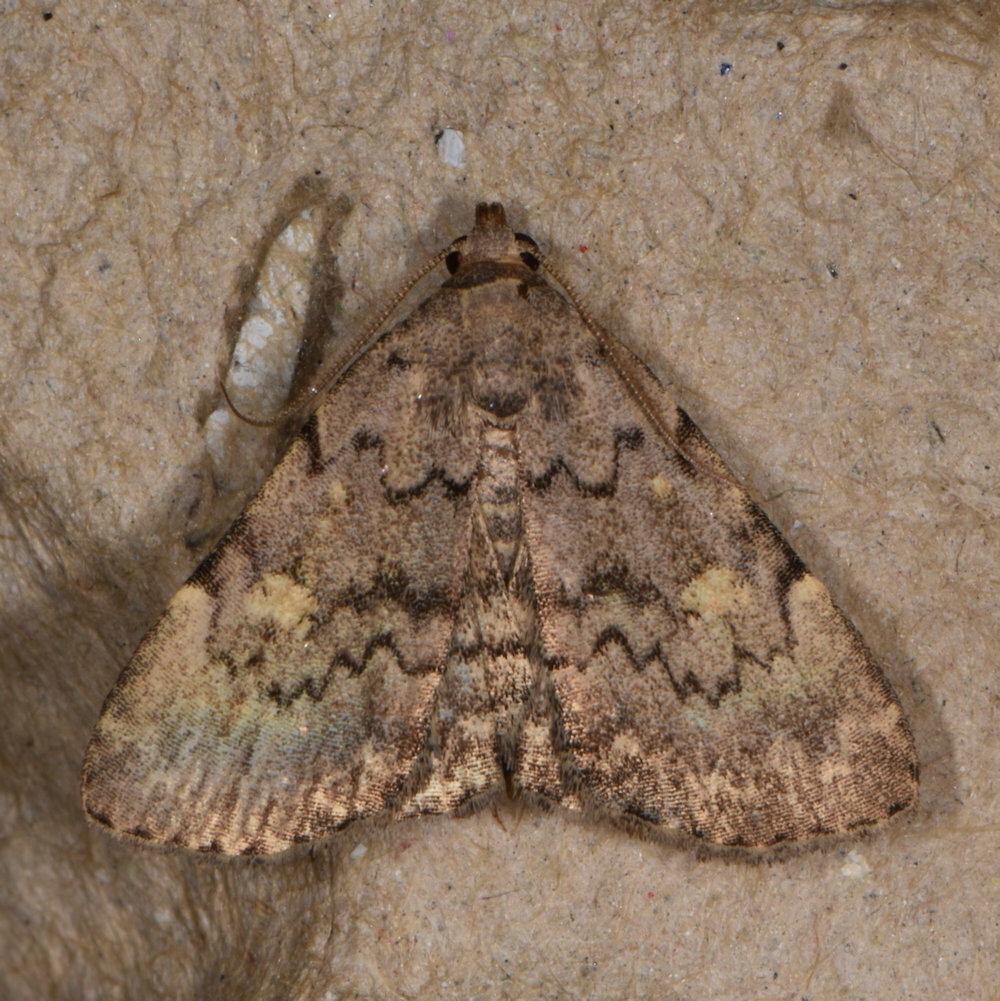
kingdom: Animalia
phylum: Arthropoda
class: Insecta
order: Lepidoptera
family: Erebidae
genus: Idia
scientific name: Idia aemula
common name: Common idia moth
